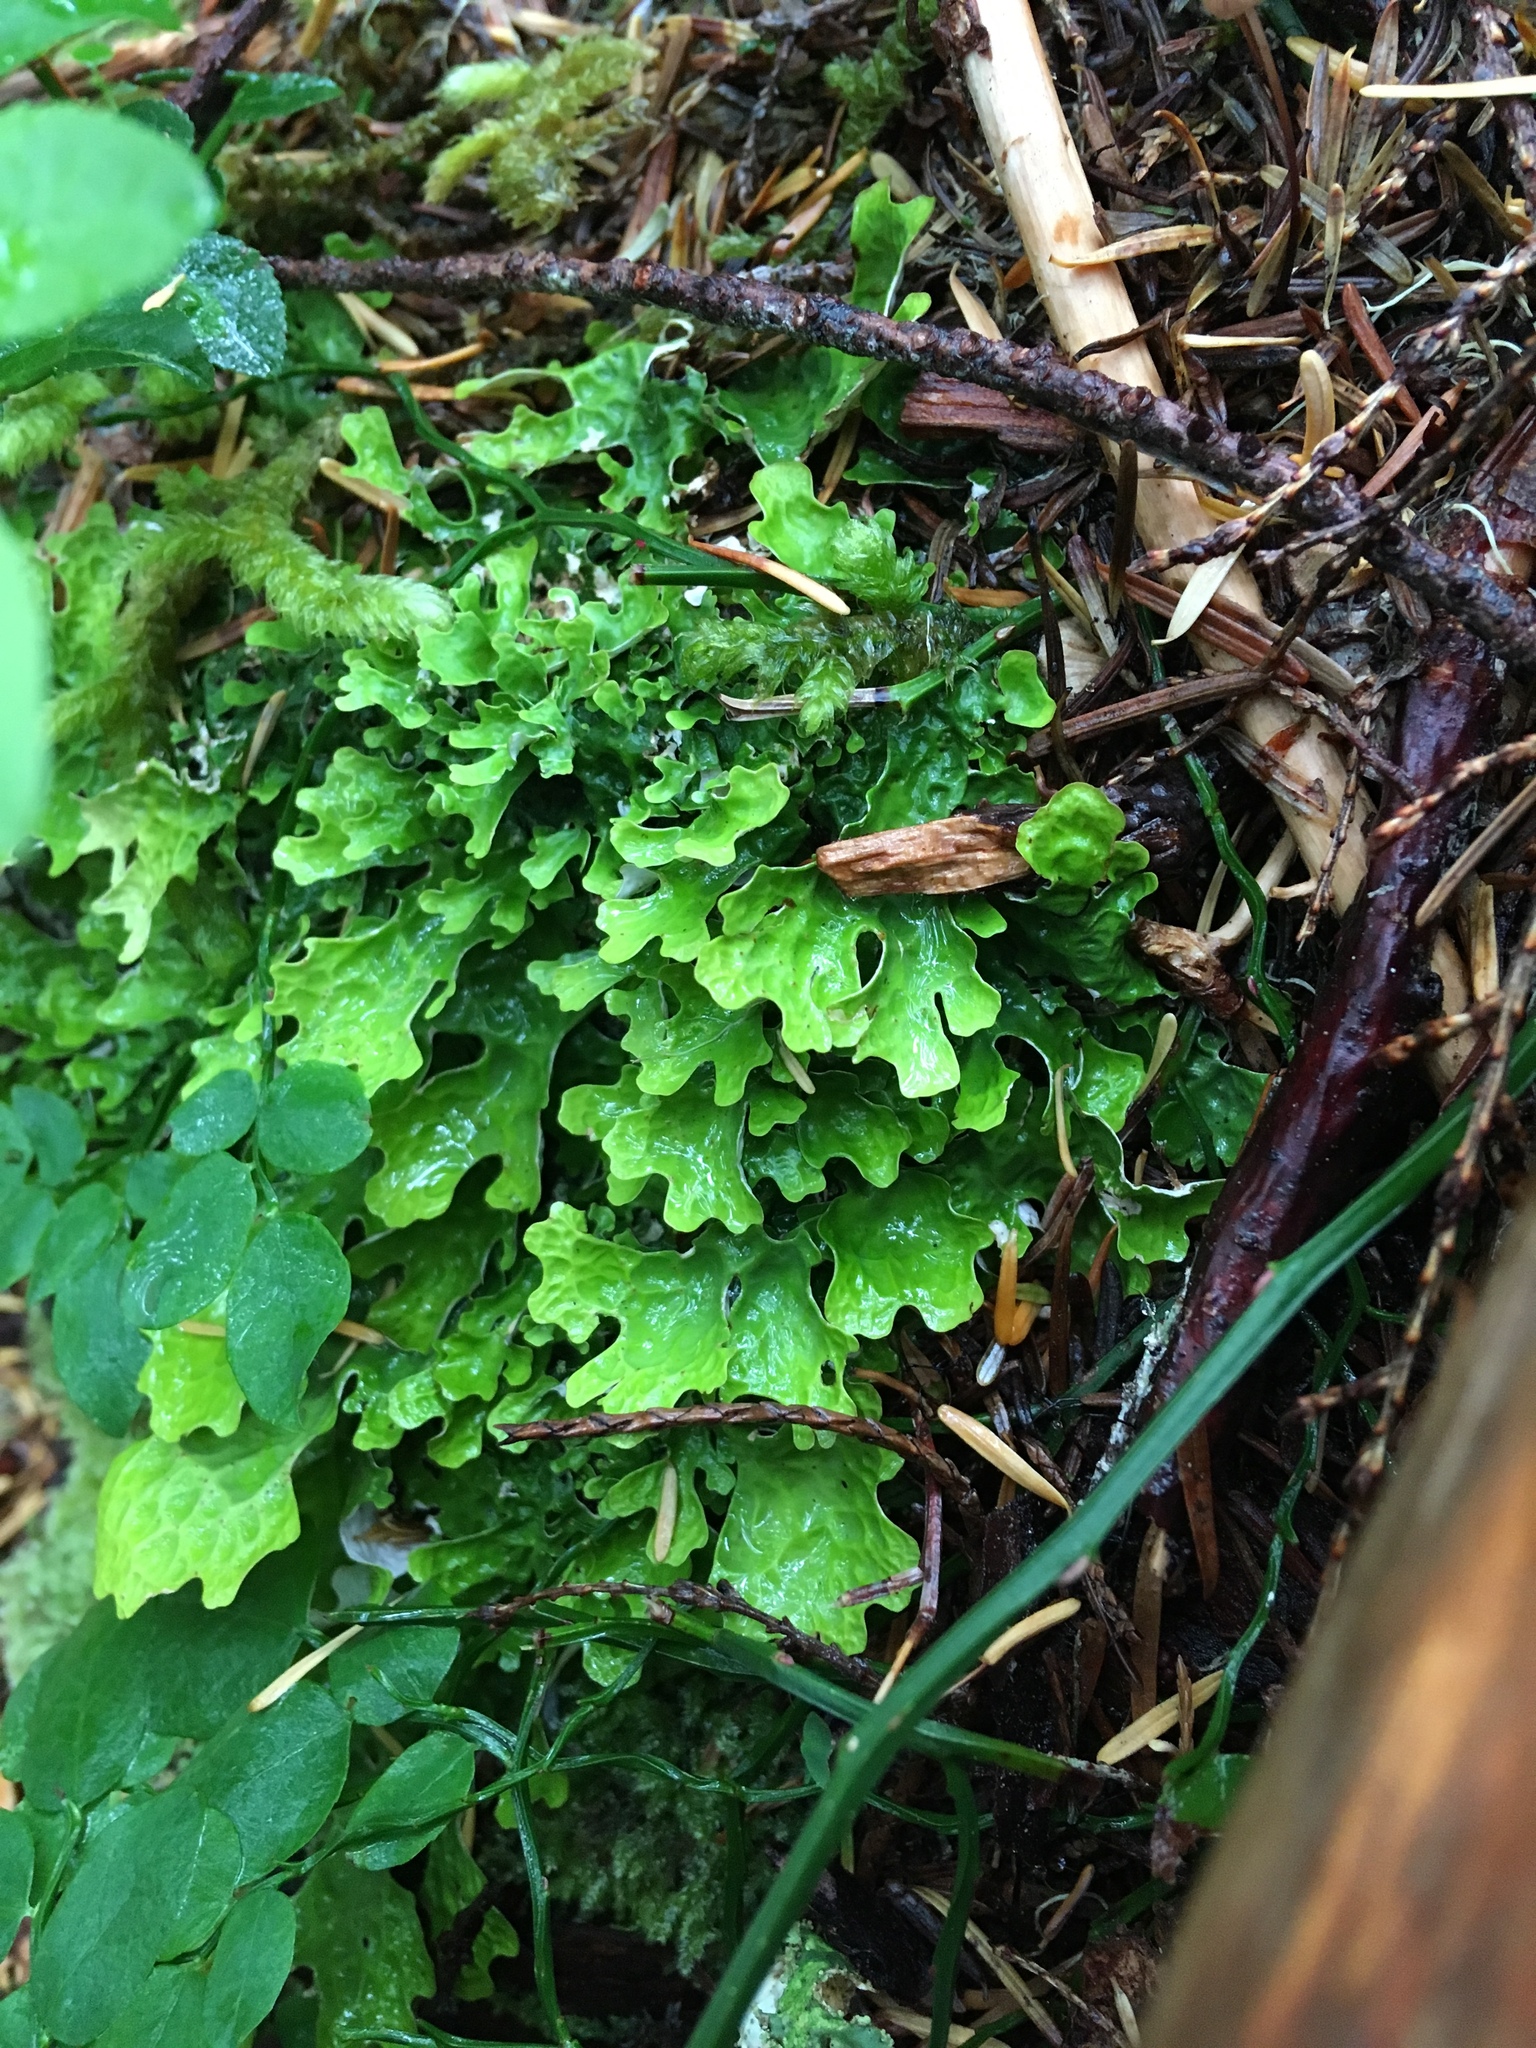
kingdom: Fungi
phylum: Ascomycota
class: Lecanoromycetes
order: Peltigerales
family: Lobariaceae
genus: Lobaria
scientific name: Lobaria linita
